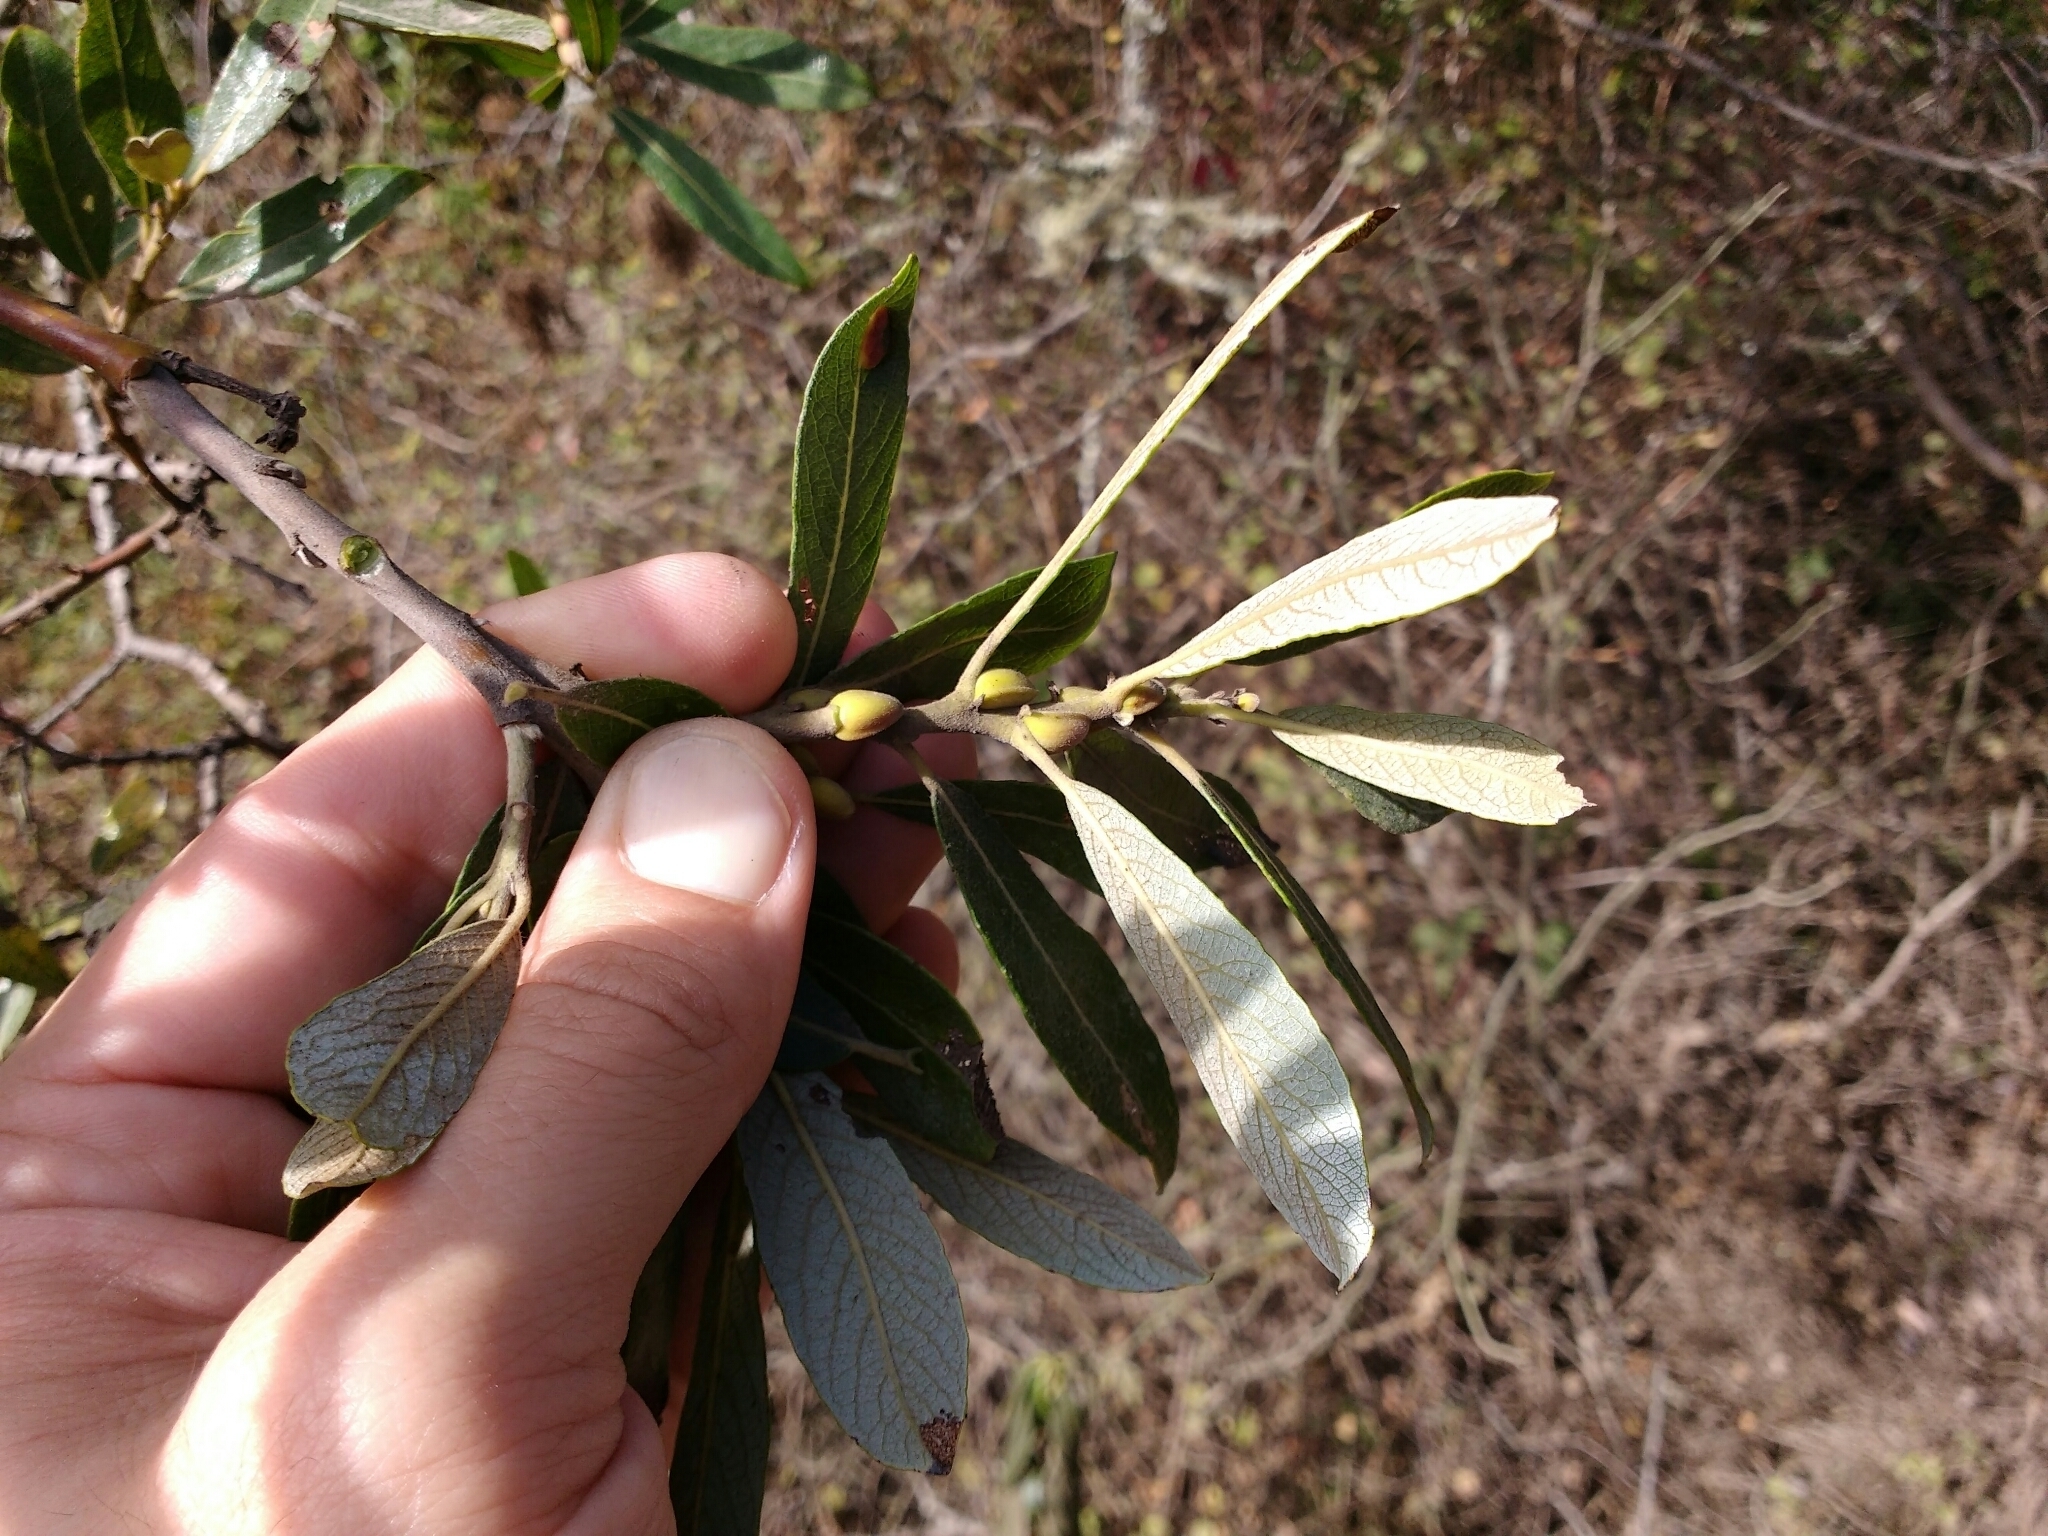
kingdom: Plantae
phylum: Tracheophyta
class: Magnoliopsida
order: Malpighiales
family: Salicaceae
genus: Salix
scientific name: Salix lasiolepis
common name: Arroyo willow
